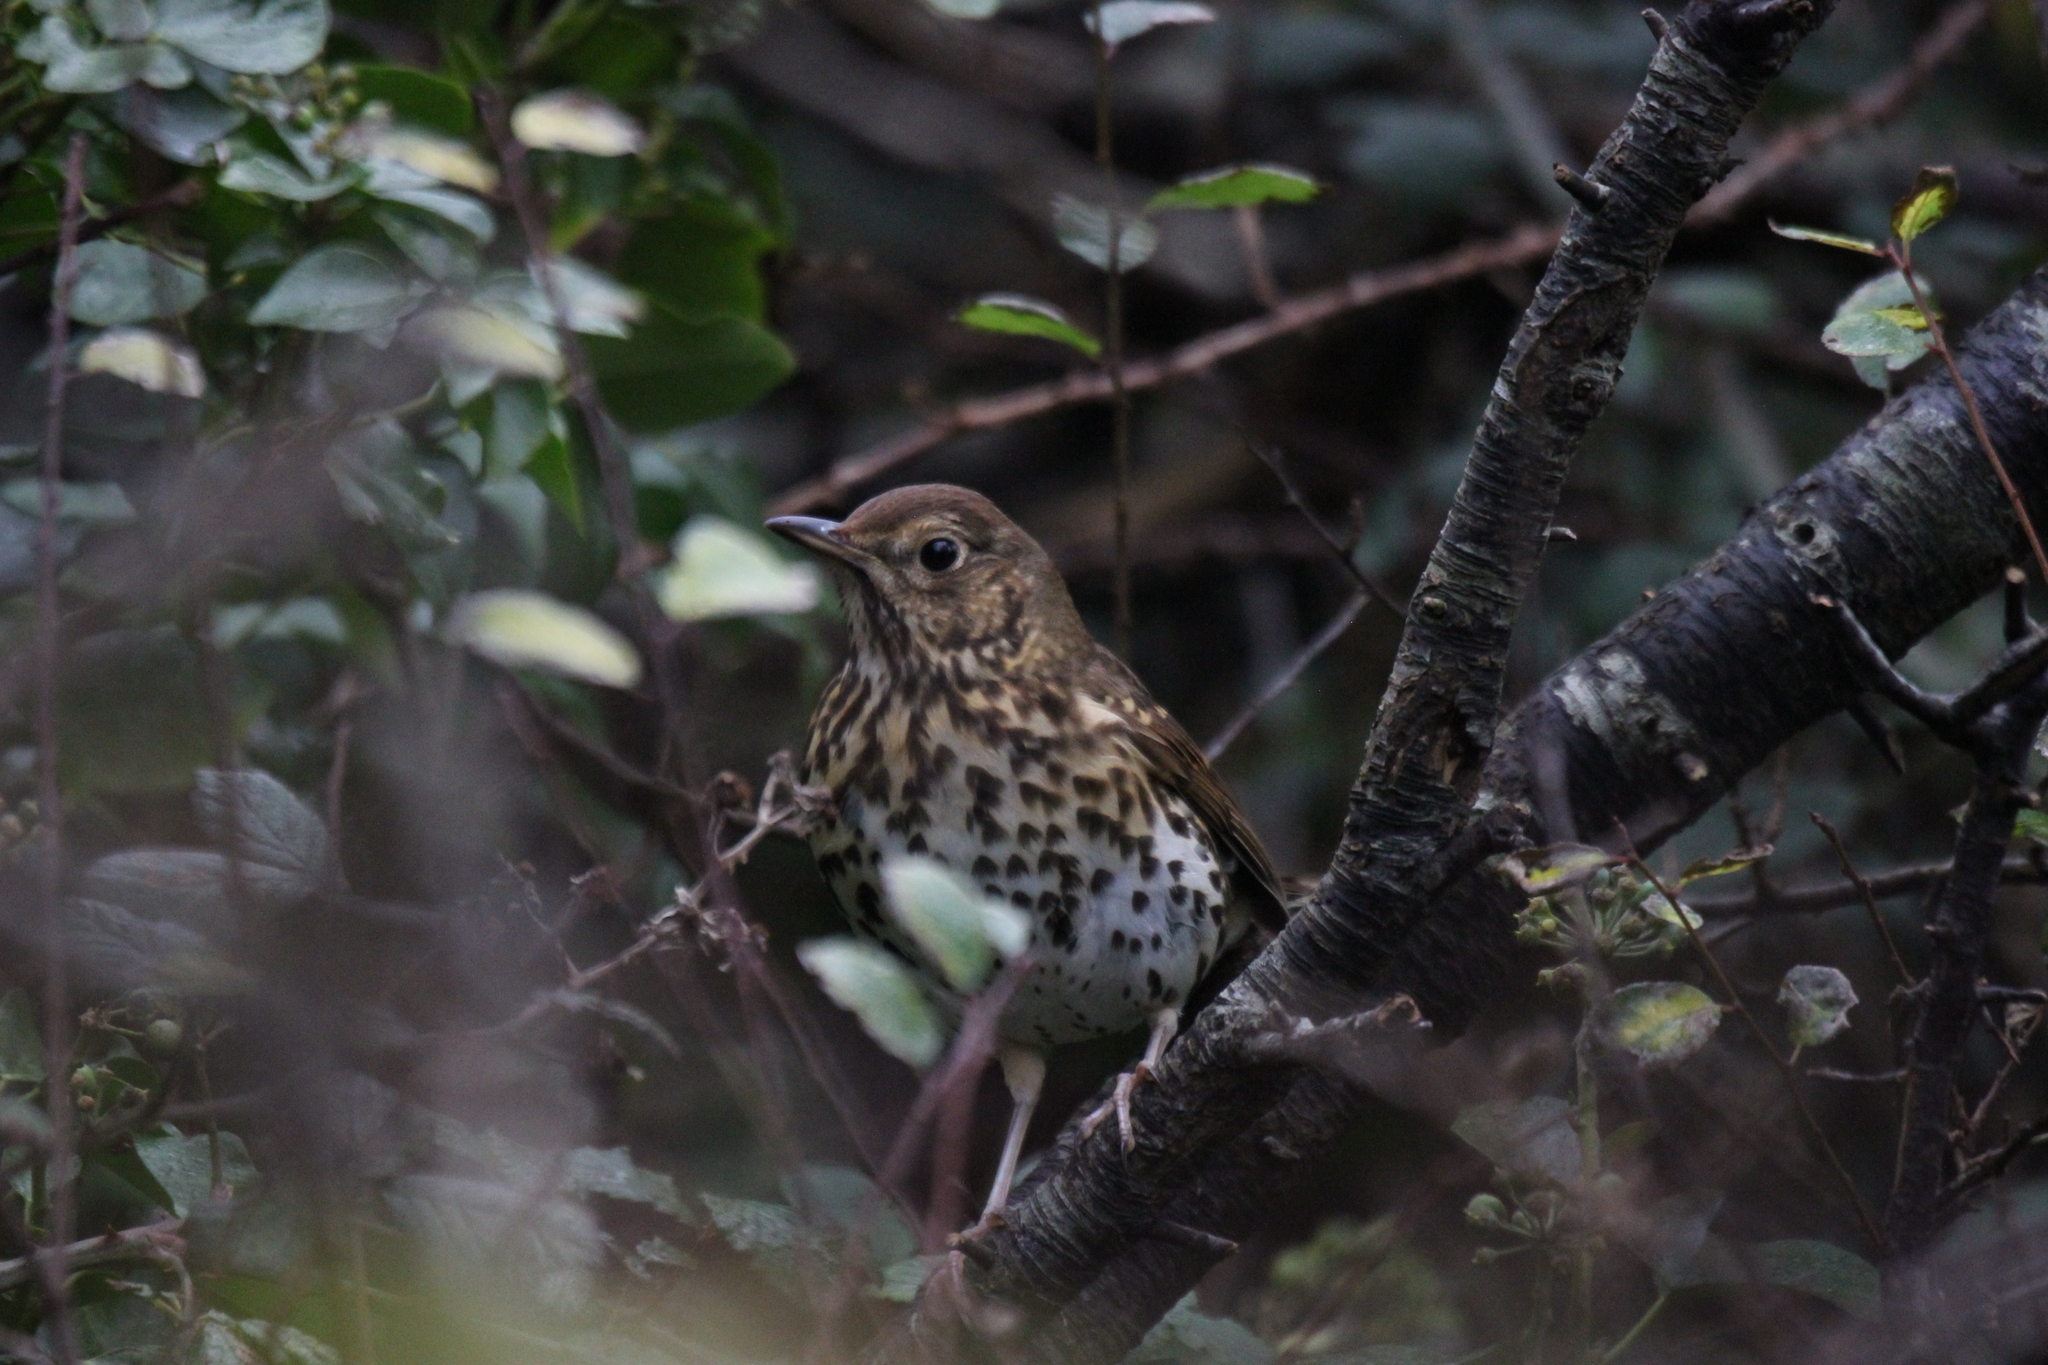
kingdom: Animalia
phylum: Chordata
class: Aves
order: Passeriformes
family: Turdidae
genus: Turdus
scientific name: Turdus philomelos
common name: Song thrush
